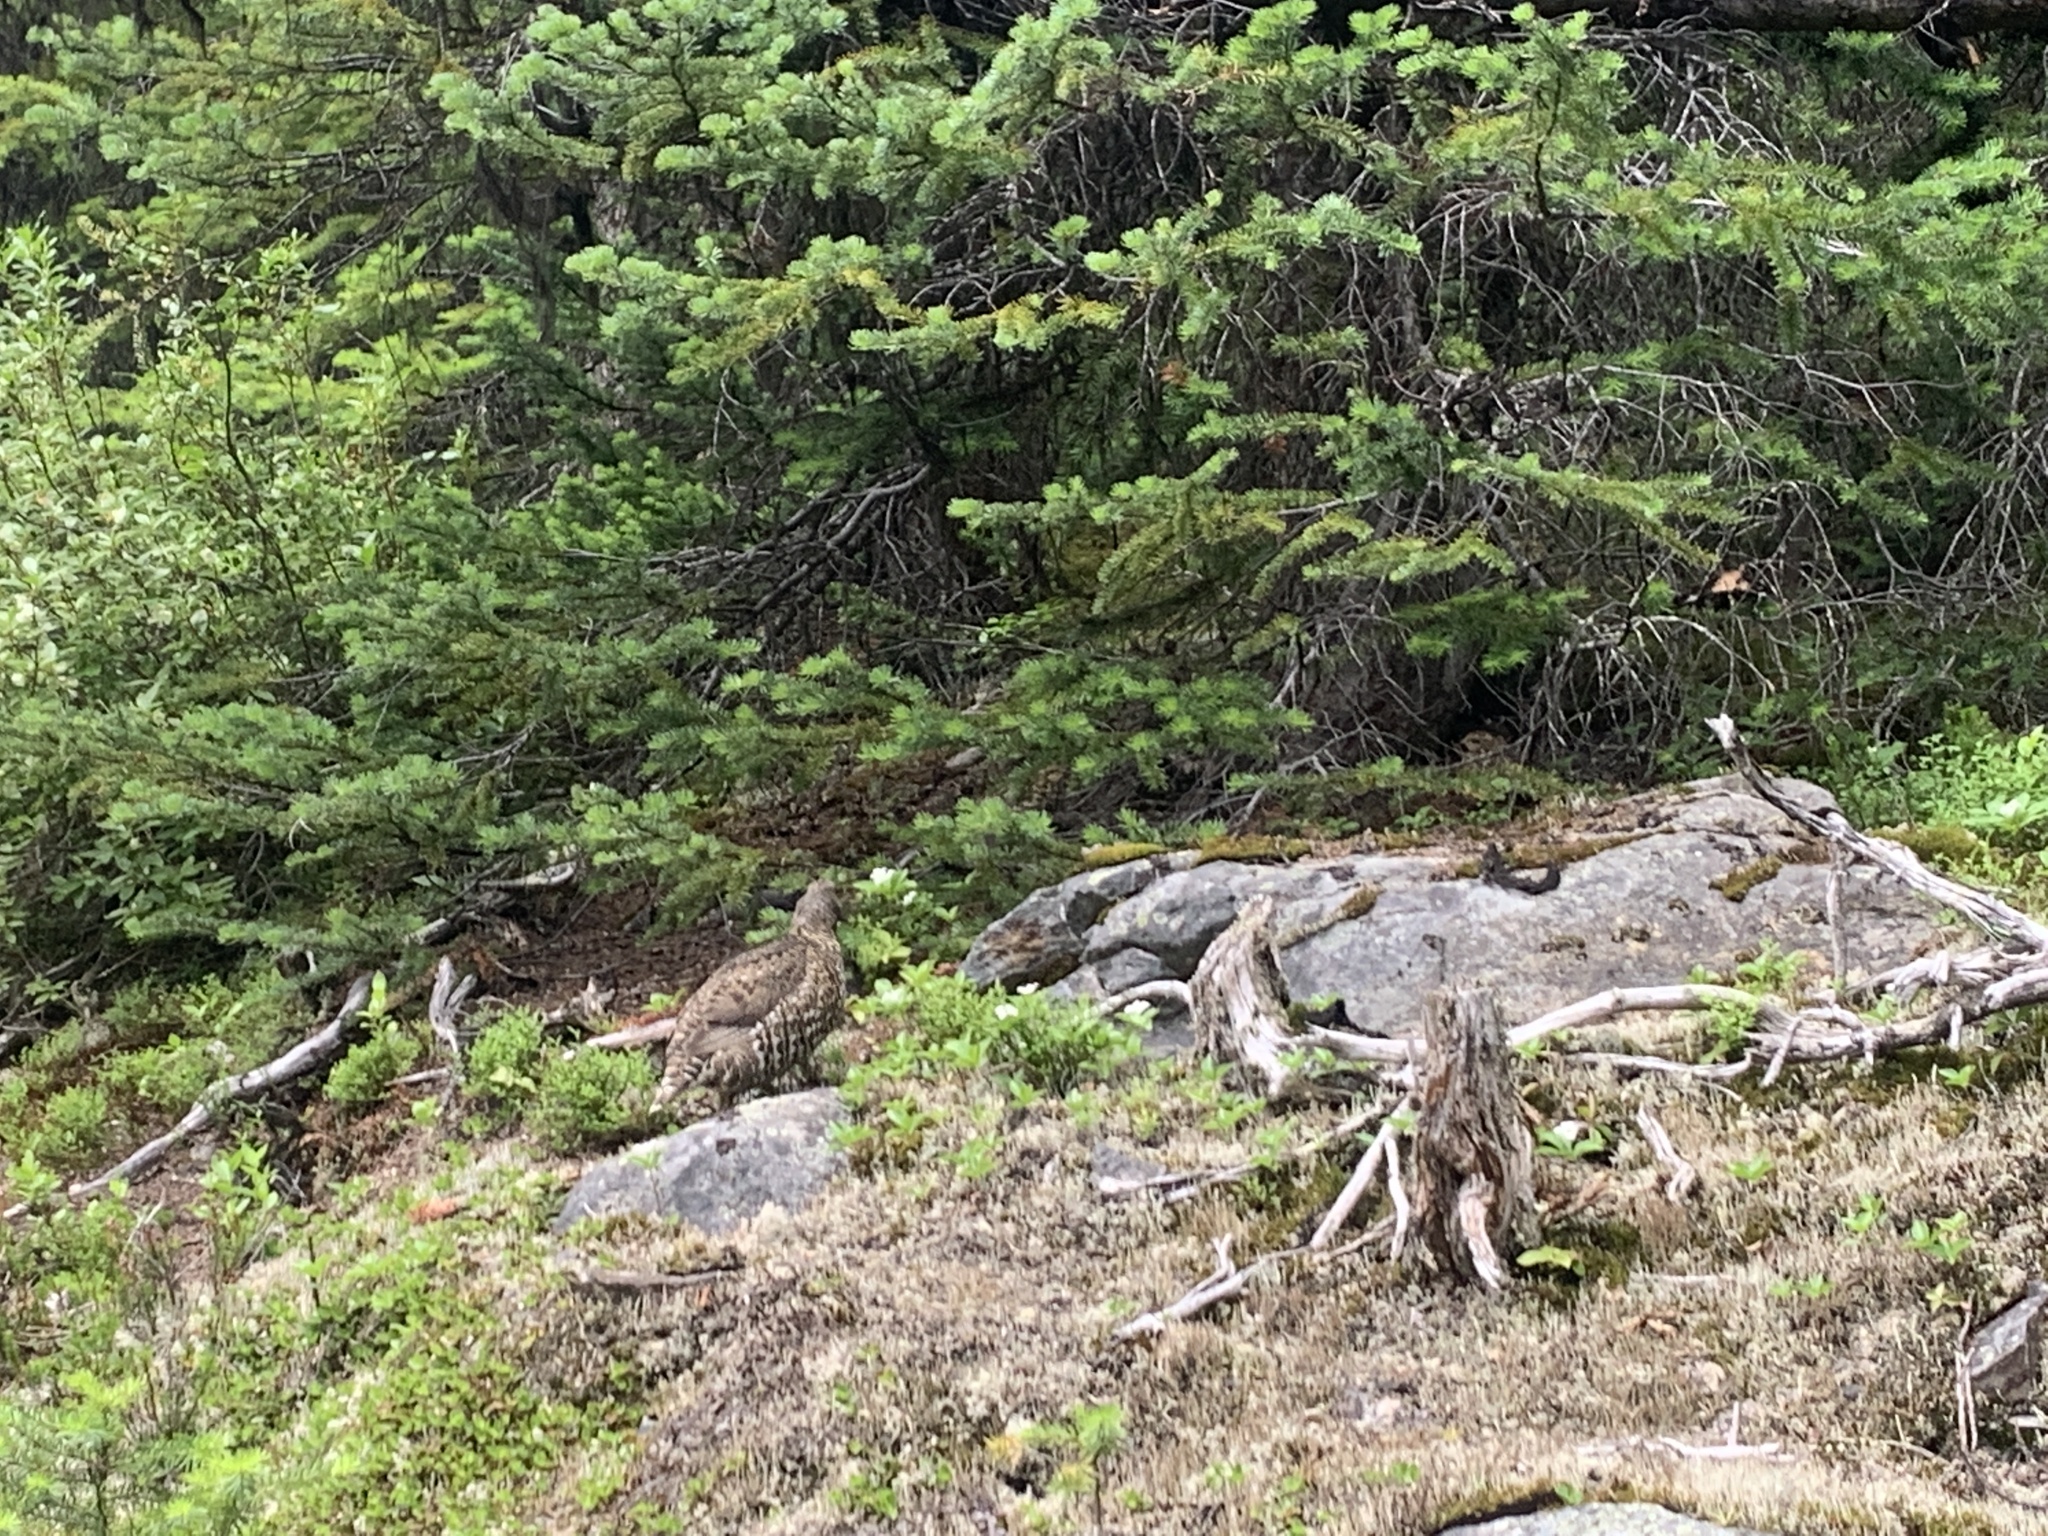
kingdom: Animalia
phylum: Chordata
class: Aves
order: Galliformes
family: Phasianidae
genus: Canachites
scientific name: Canachites canadensis
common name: Spruce grouse
